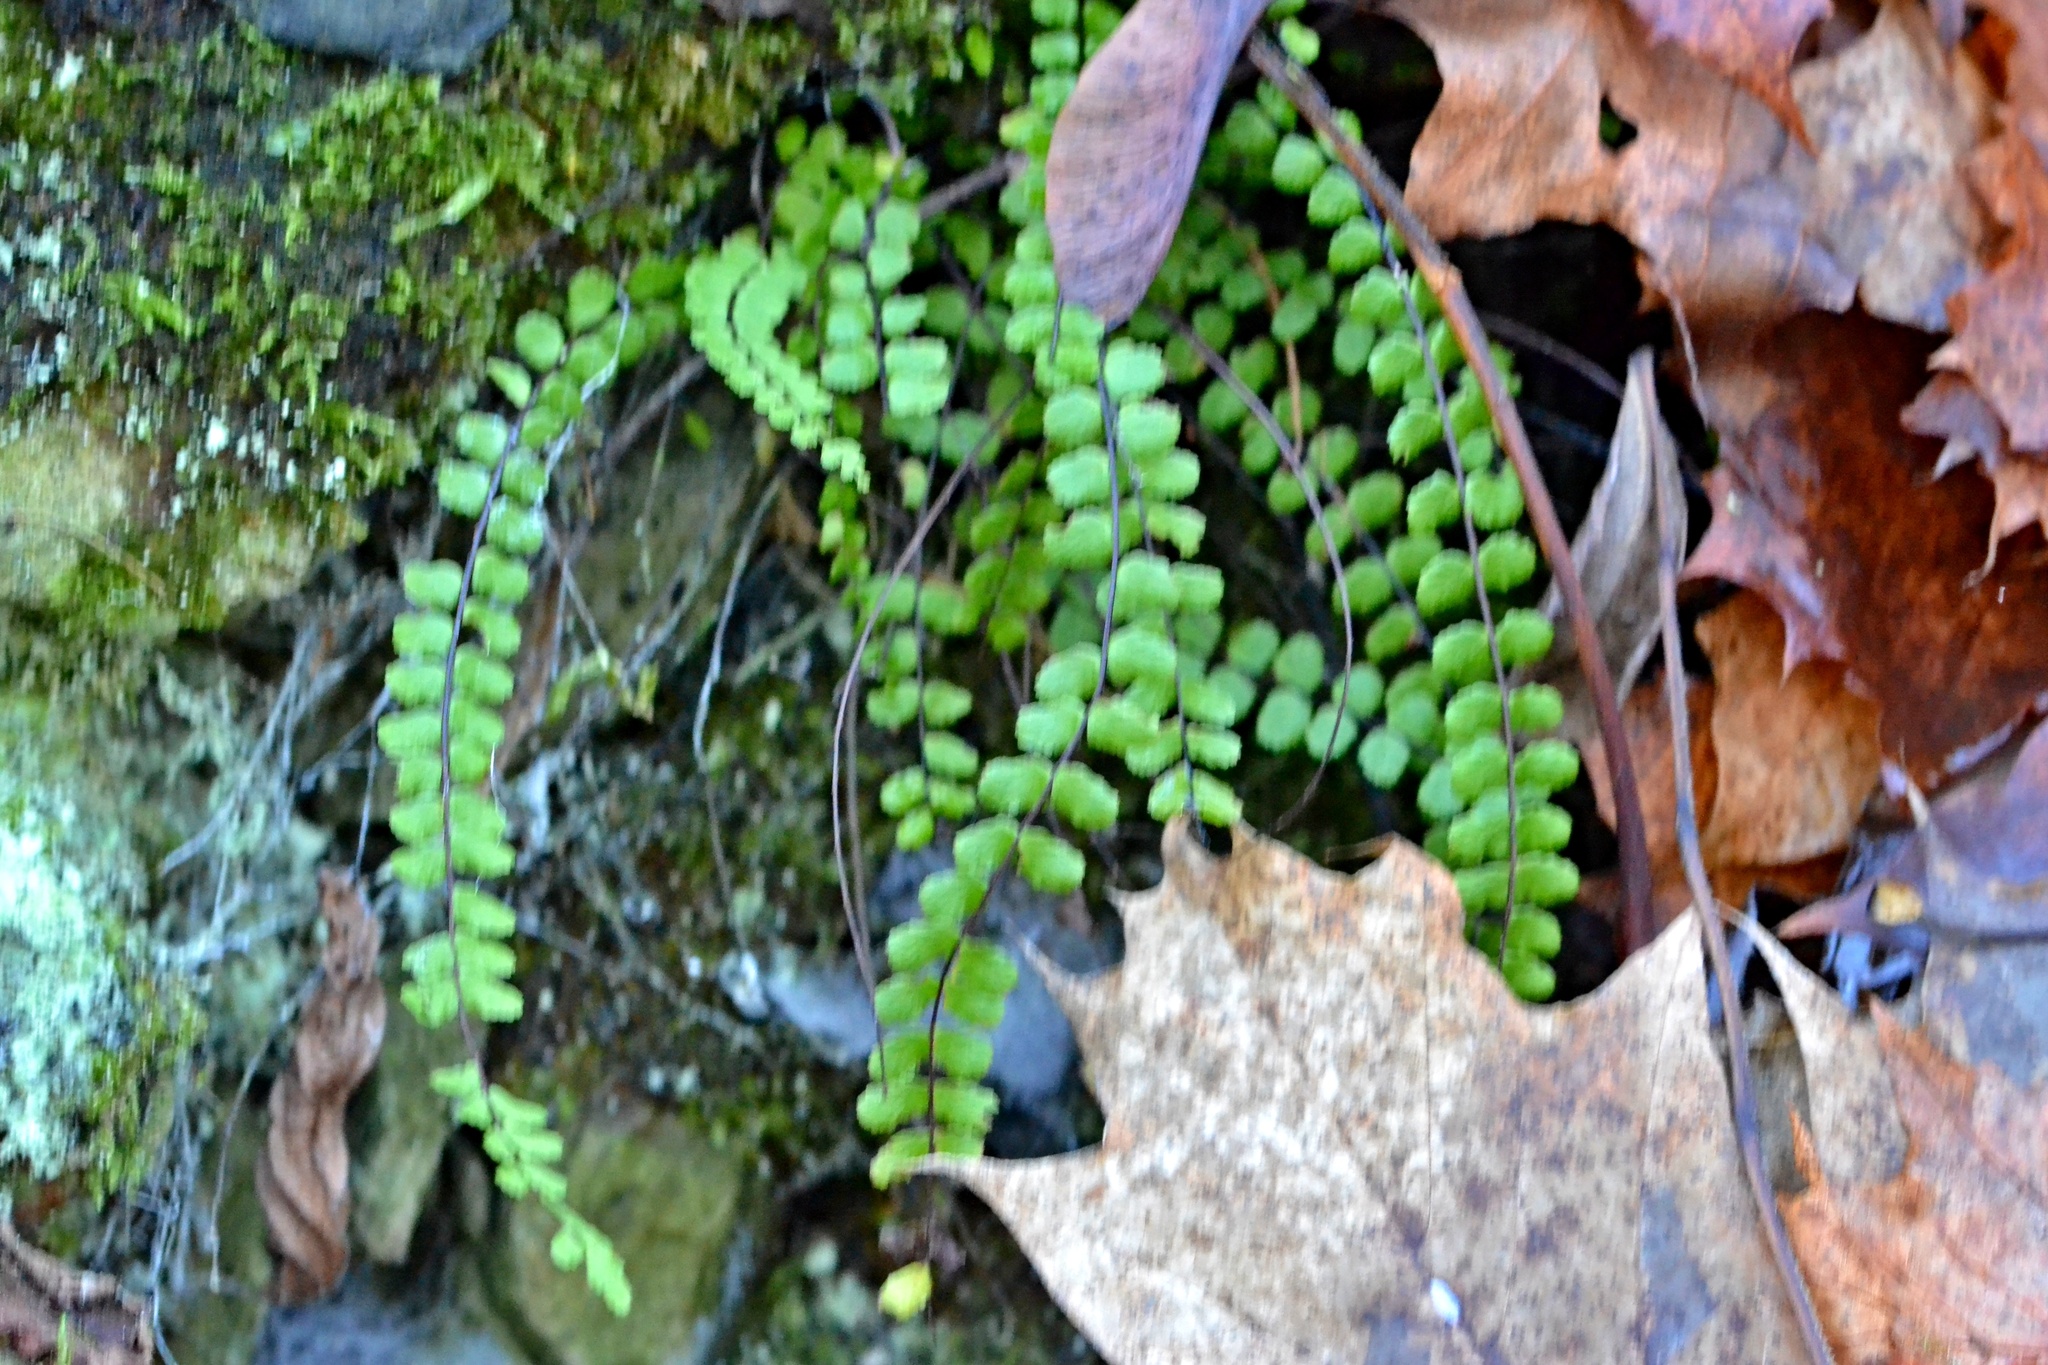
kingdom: Plantae
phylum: Tracheophyta
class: Polypodiopsida
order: Polypodiales
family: Aspleniaceae
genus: Asplenium
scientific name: Asplenium trichomanes
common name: Maidenhair spleenwort
